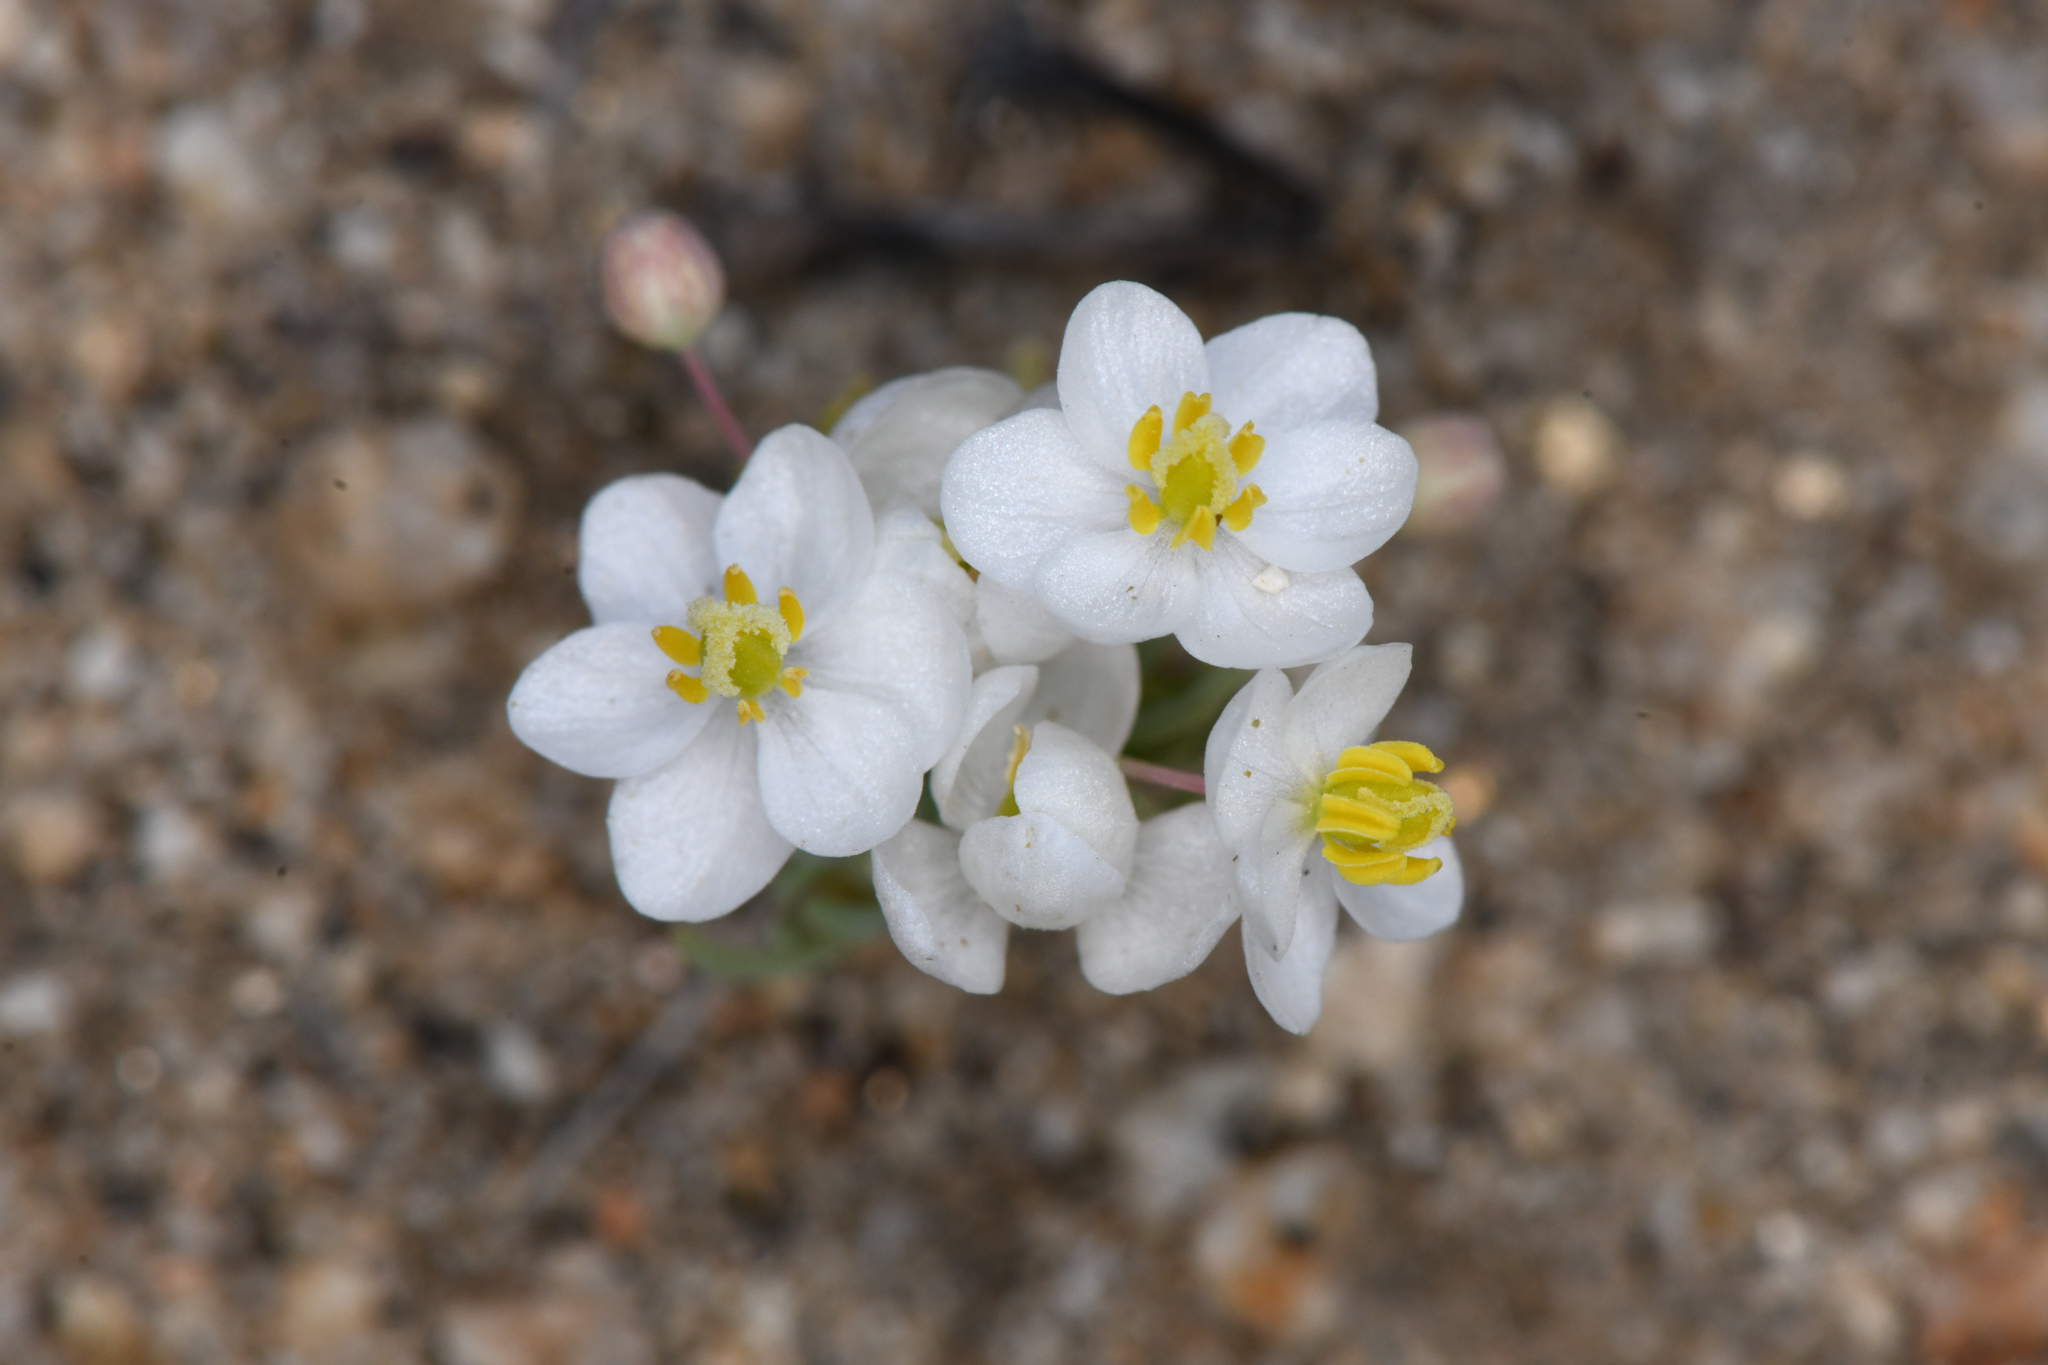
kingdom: Plantae
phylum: Tracheophyta
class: Magnoliopsida
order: Ranunculales
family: Papaveraceae
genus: Canbya
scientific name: Canbya candida
